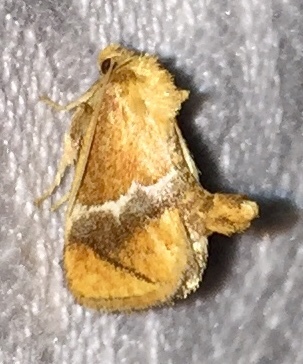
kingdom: Animalia
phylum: Arthropoda
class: Insecta
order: Lepidoptera
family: Limacodidae
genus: Lithacodes
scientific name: Lithacodes fasciola
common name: Yellow-shouldered slug moth
